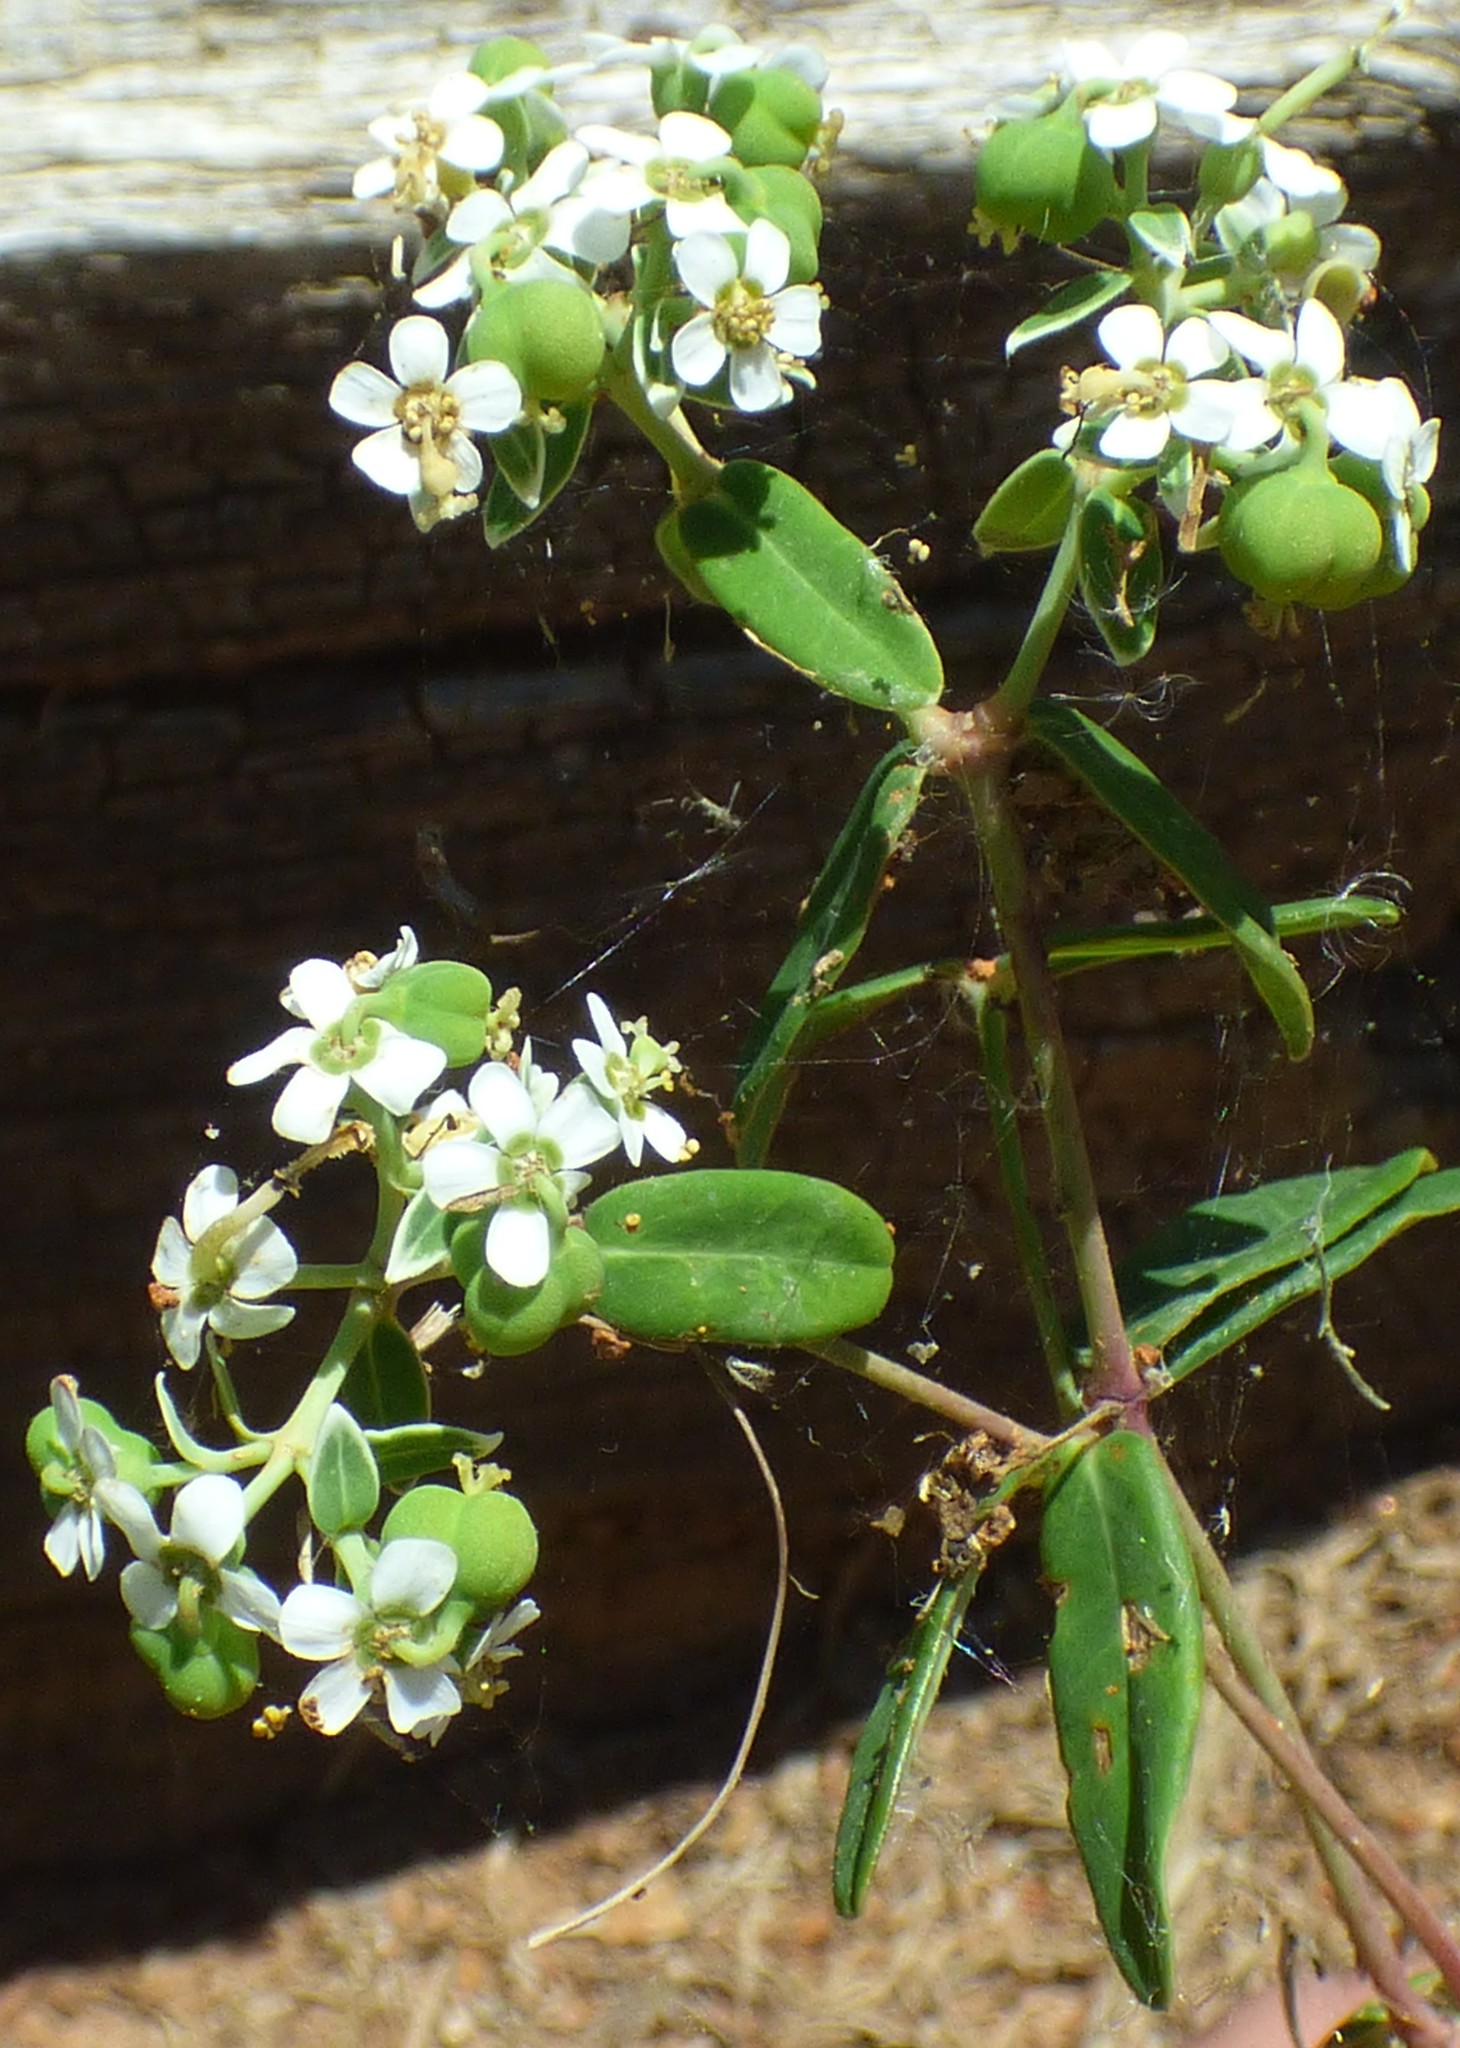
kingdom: Plantae
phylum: Tracheophyta
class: Magnoliopsida
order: Malpighiales
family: Euphorbiaceae
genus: Euphorbia
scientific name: Euphorbia corollata
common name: Flowering spurge
